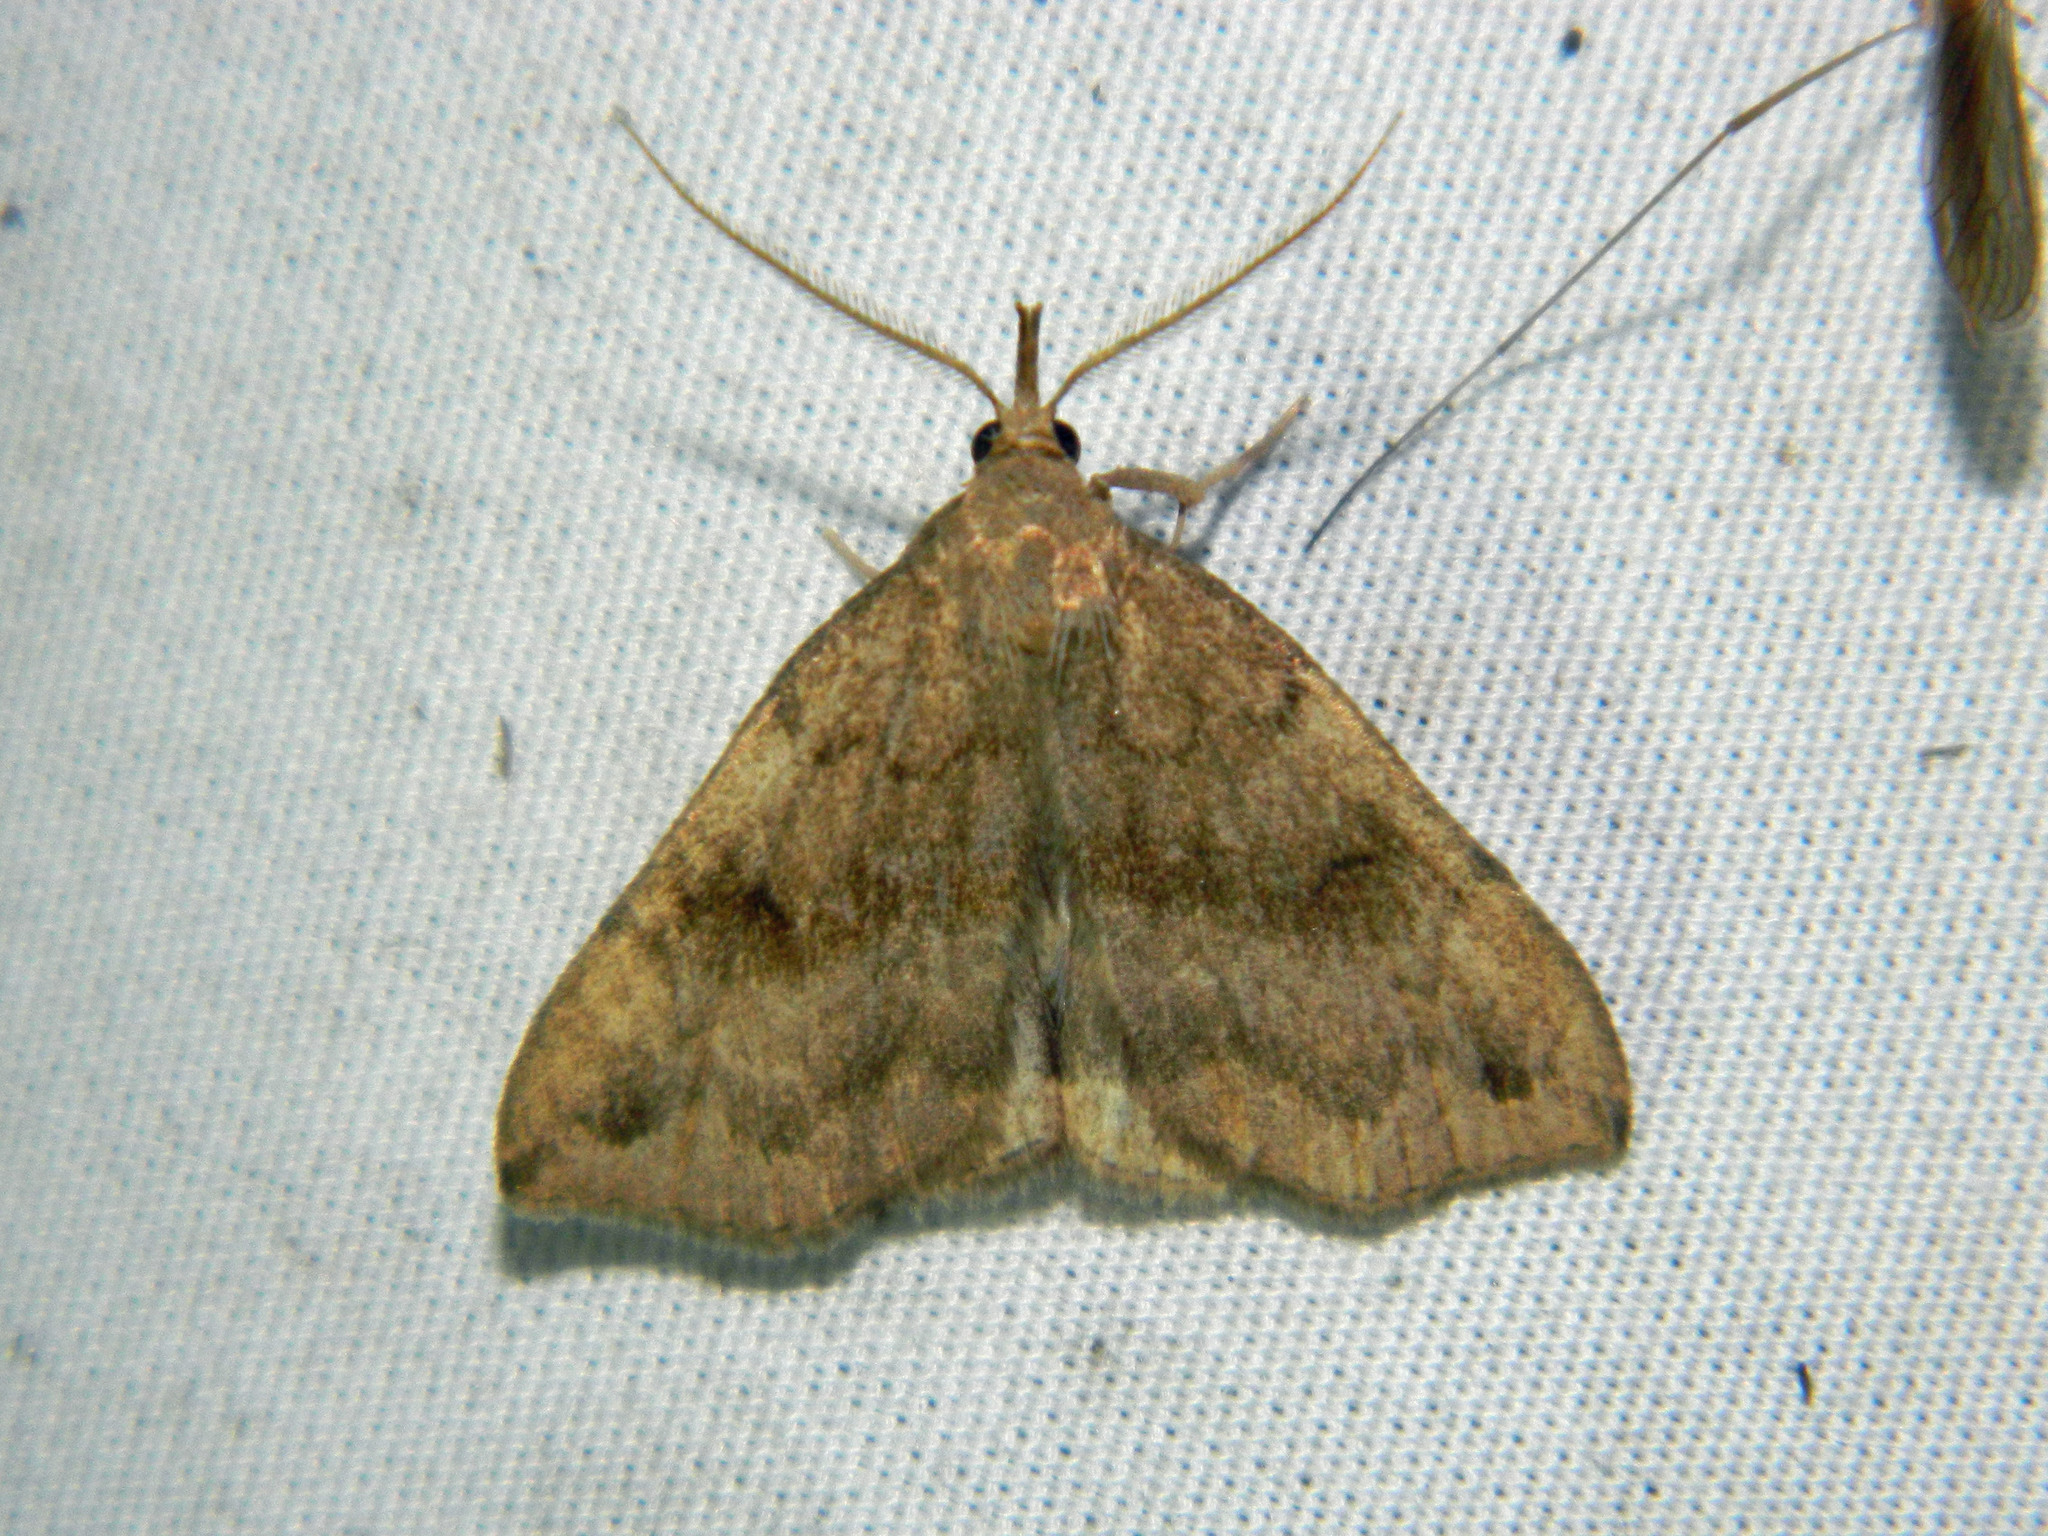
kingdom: Animalia
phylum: Arthropoda
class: Insecta
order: Lepidoptera
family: Erebidae
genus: Phalaenostola
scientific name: Phalaenostola eumelusalis
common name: Dark phalaenostola moth
